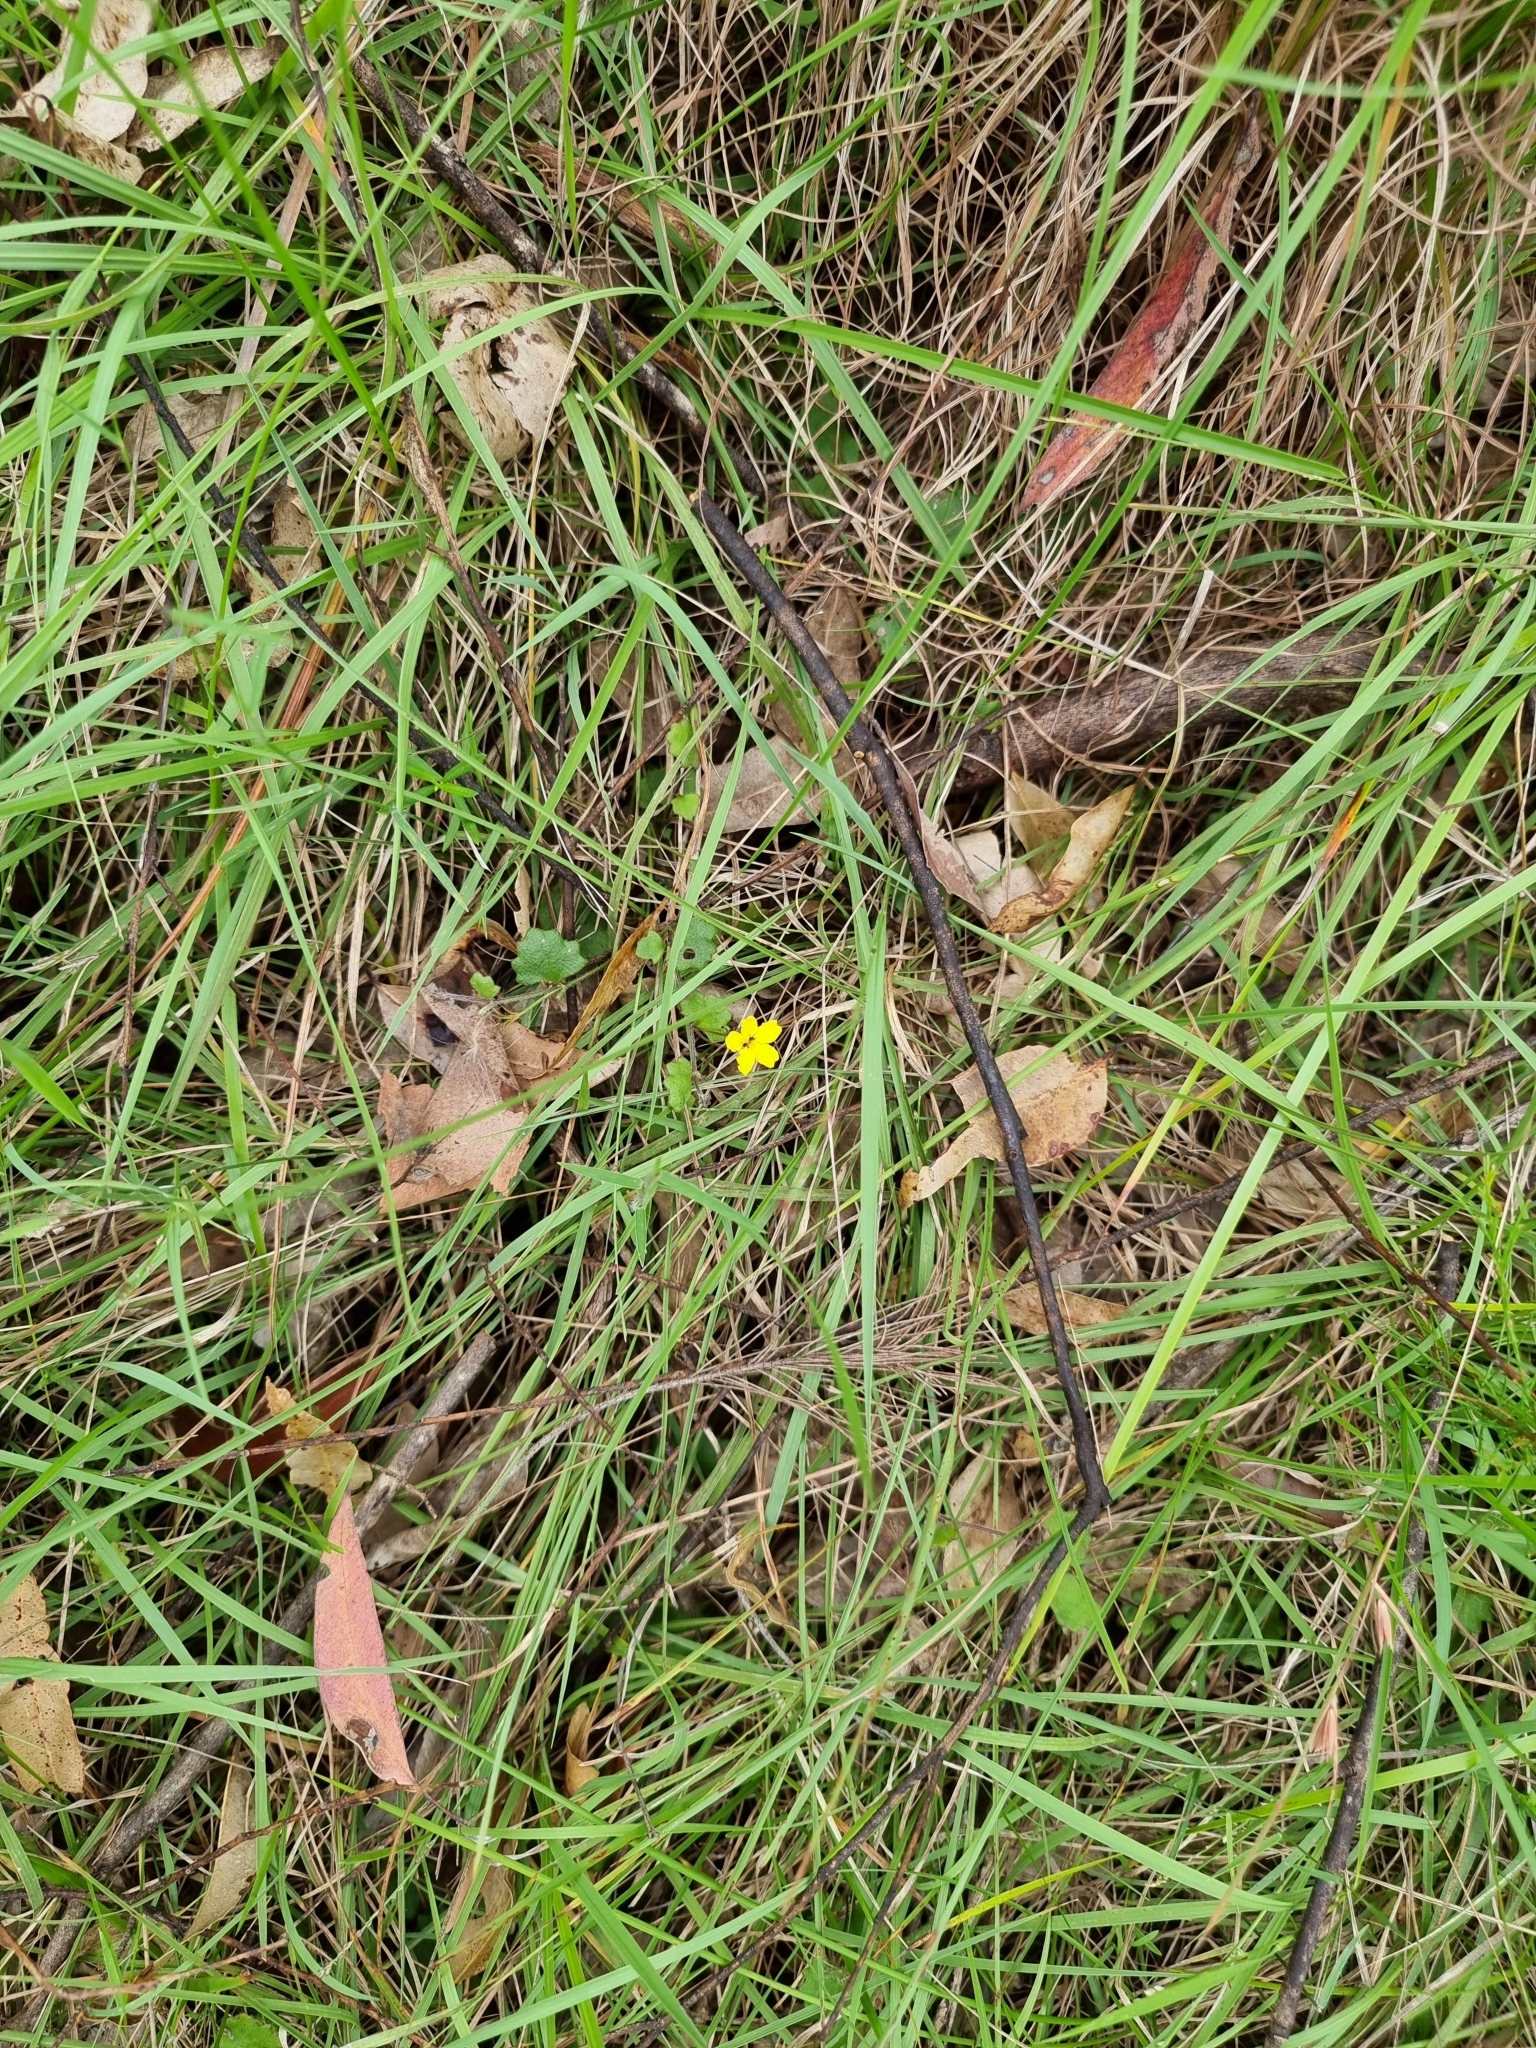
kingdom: Plantae
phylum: Tracheophyta
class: Magnoliopsida
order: Asterales
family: Goodeniaceae
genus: Goodenia
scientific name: Goodenia rotundifolia
